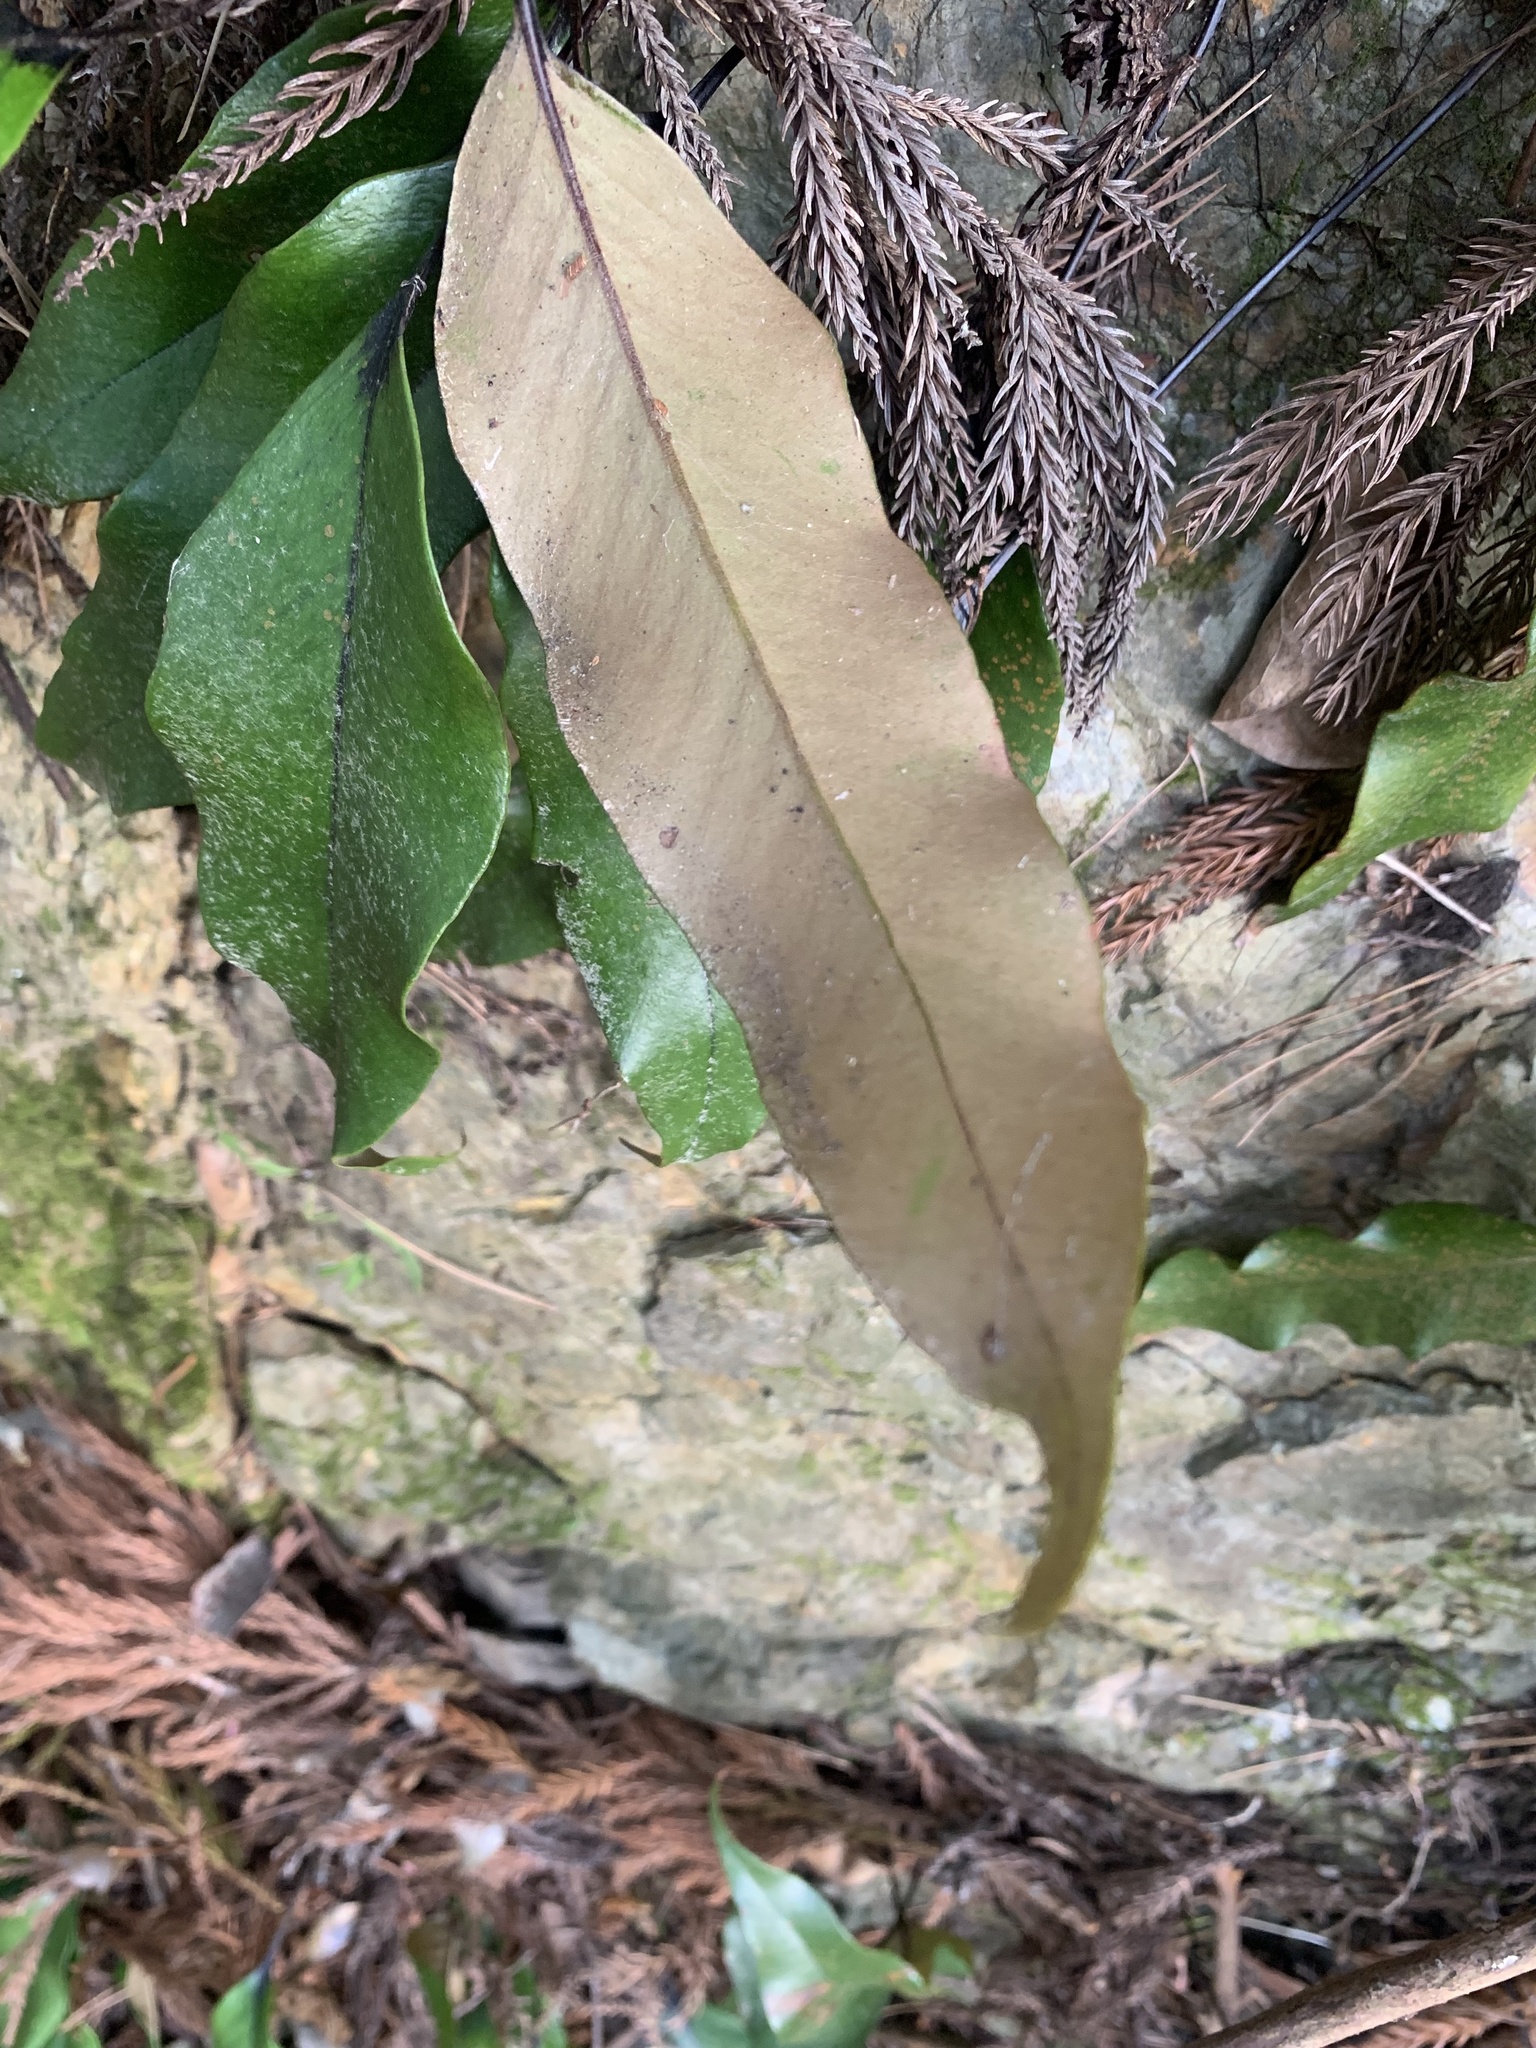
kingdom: Plantae
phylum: Tracheophyta
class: Polypodiopsida
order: Polypodiales
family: Polypodiaceae
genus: Pyrrosia
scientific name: Pyrrosia lingua
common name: Felt fern
